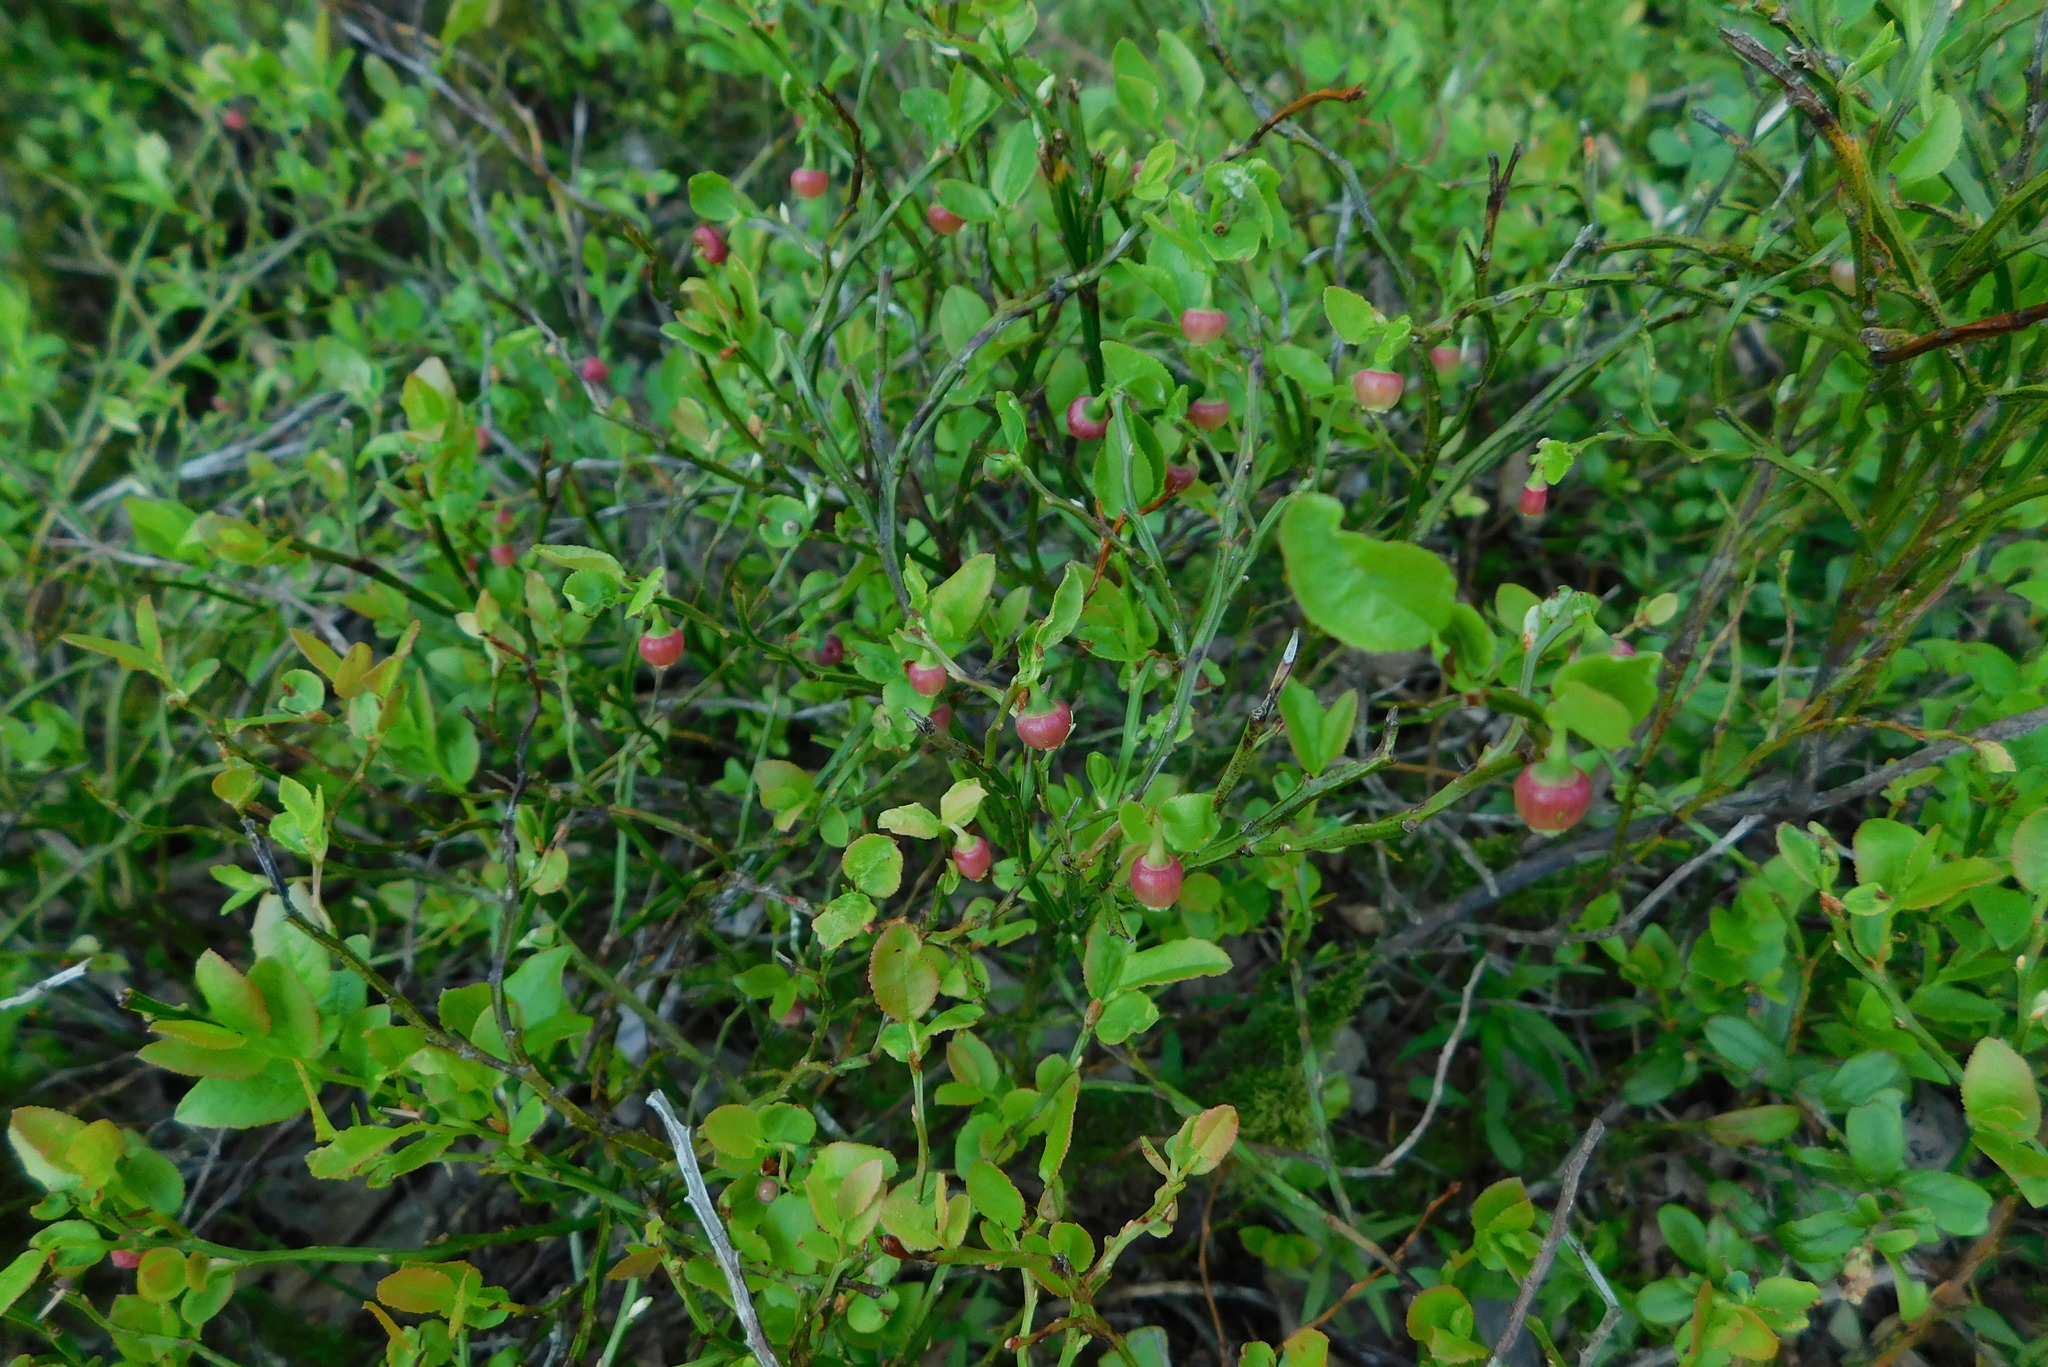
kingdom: Plantae
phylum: Tracheophyta
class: Magnoliopsida
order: Ericales
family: Ericaceae
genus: Vaccinium
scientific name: Vaccinium myrtillus
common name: Bilberry
